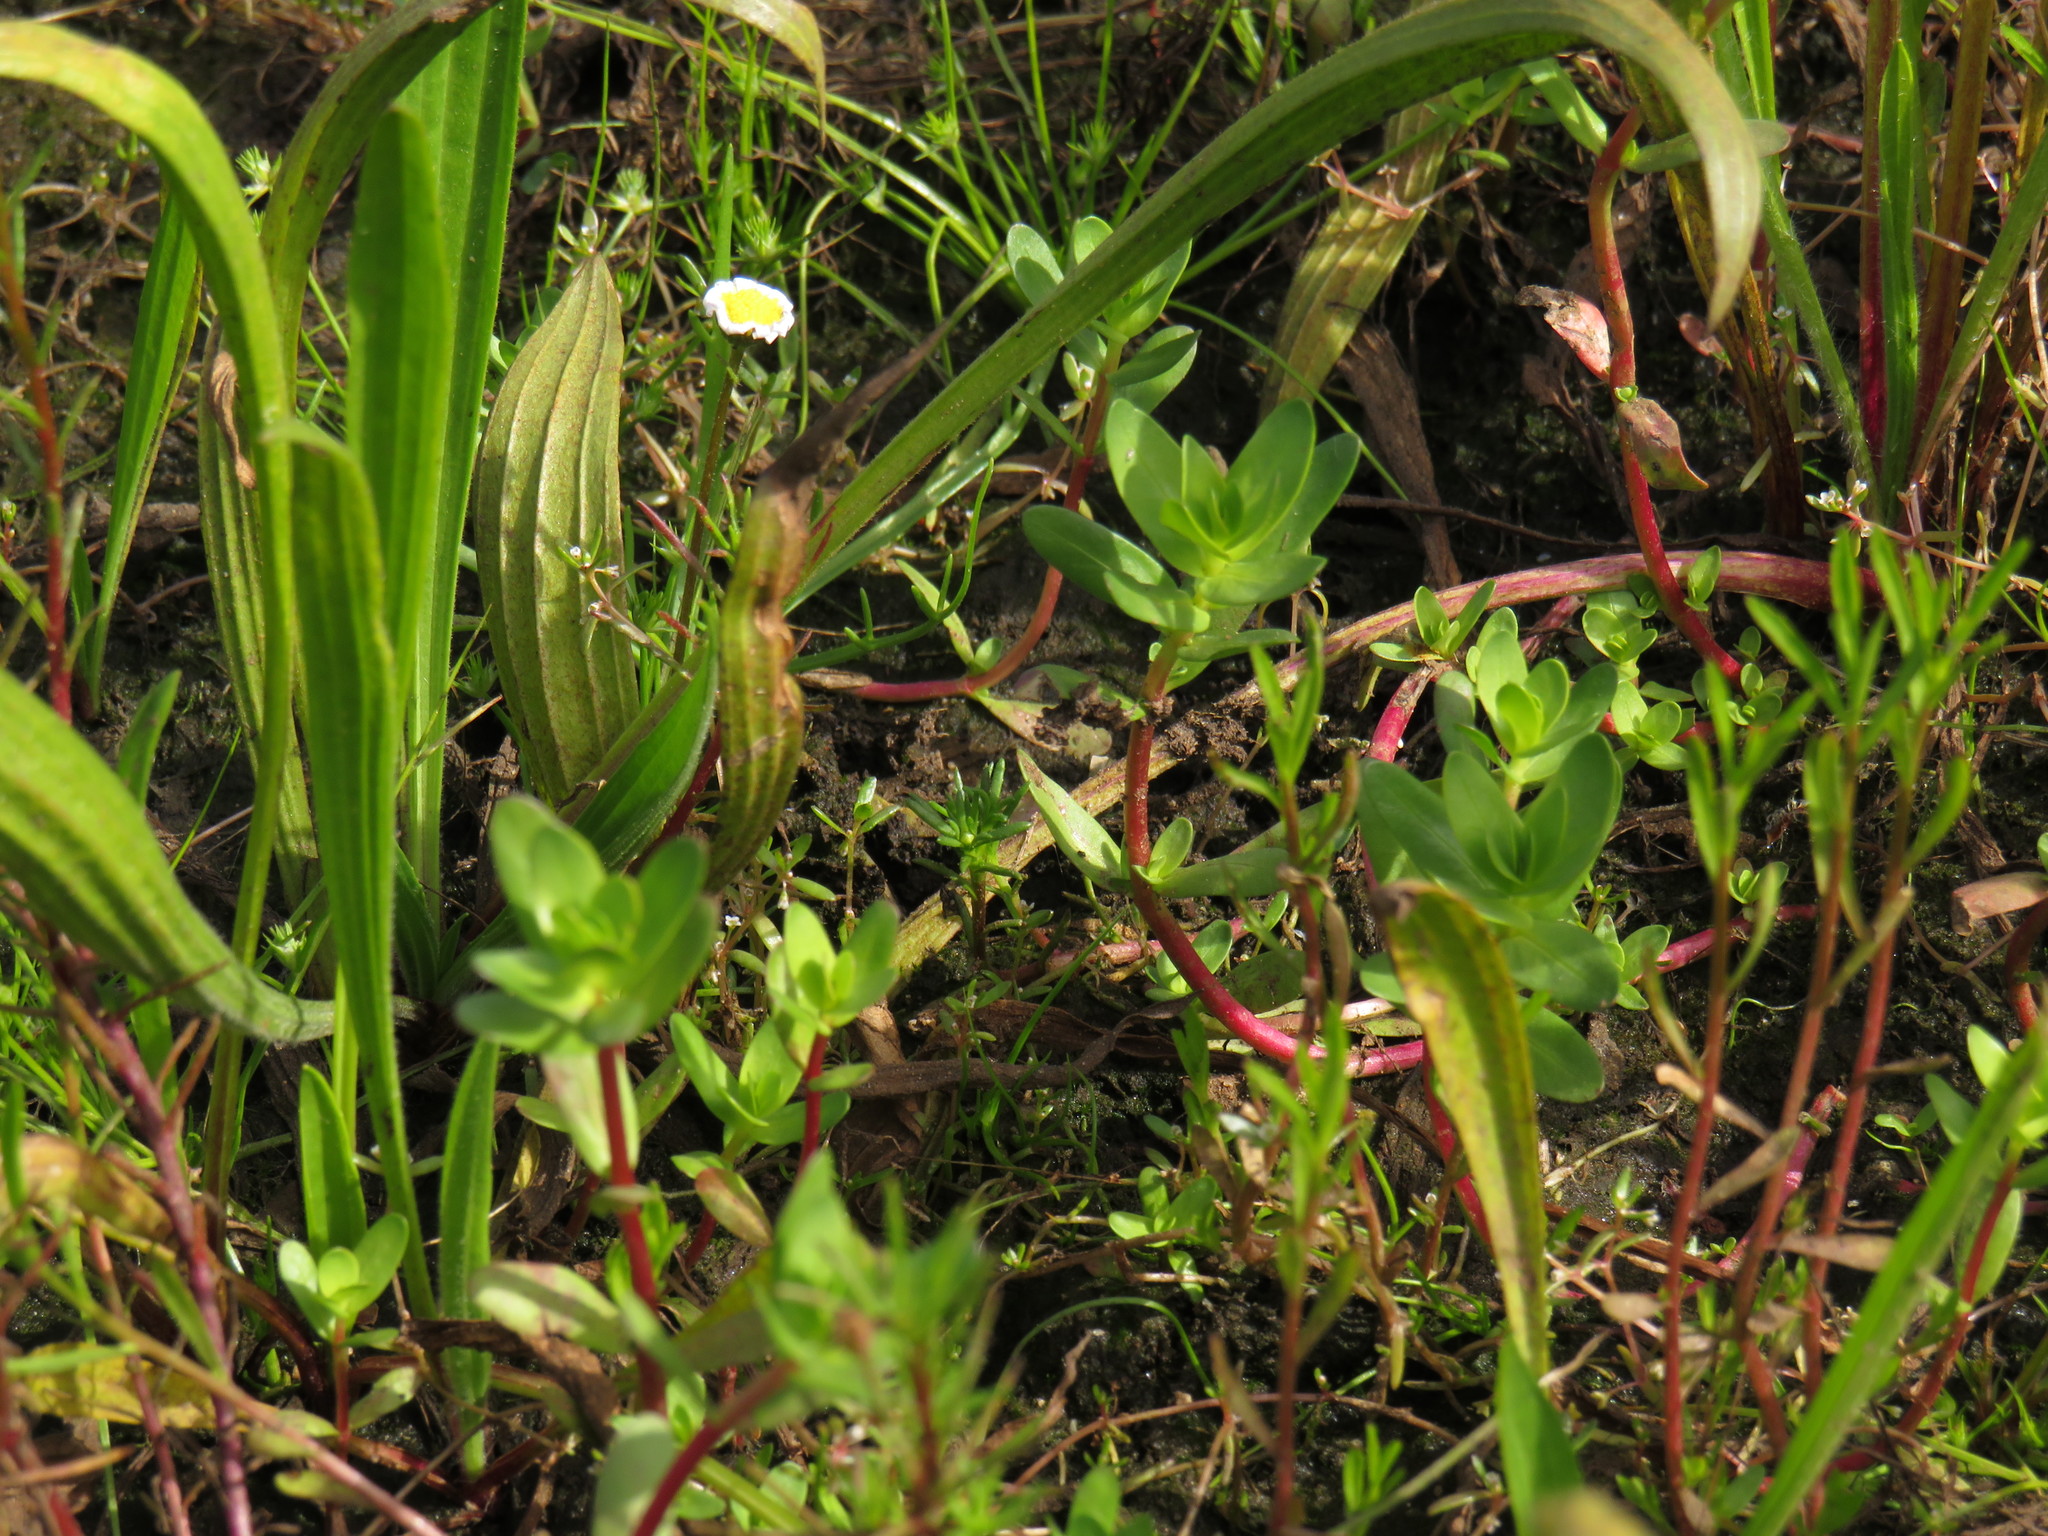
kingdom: Plantae
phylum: Tracheophyta
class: Magnoliopsida
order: Myrtales
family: Lythraceae
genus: Lythrum
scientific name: Lythrum hyssopifolia
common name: Grass-poly
